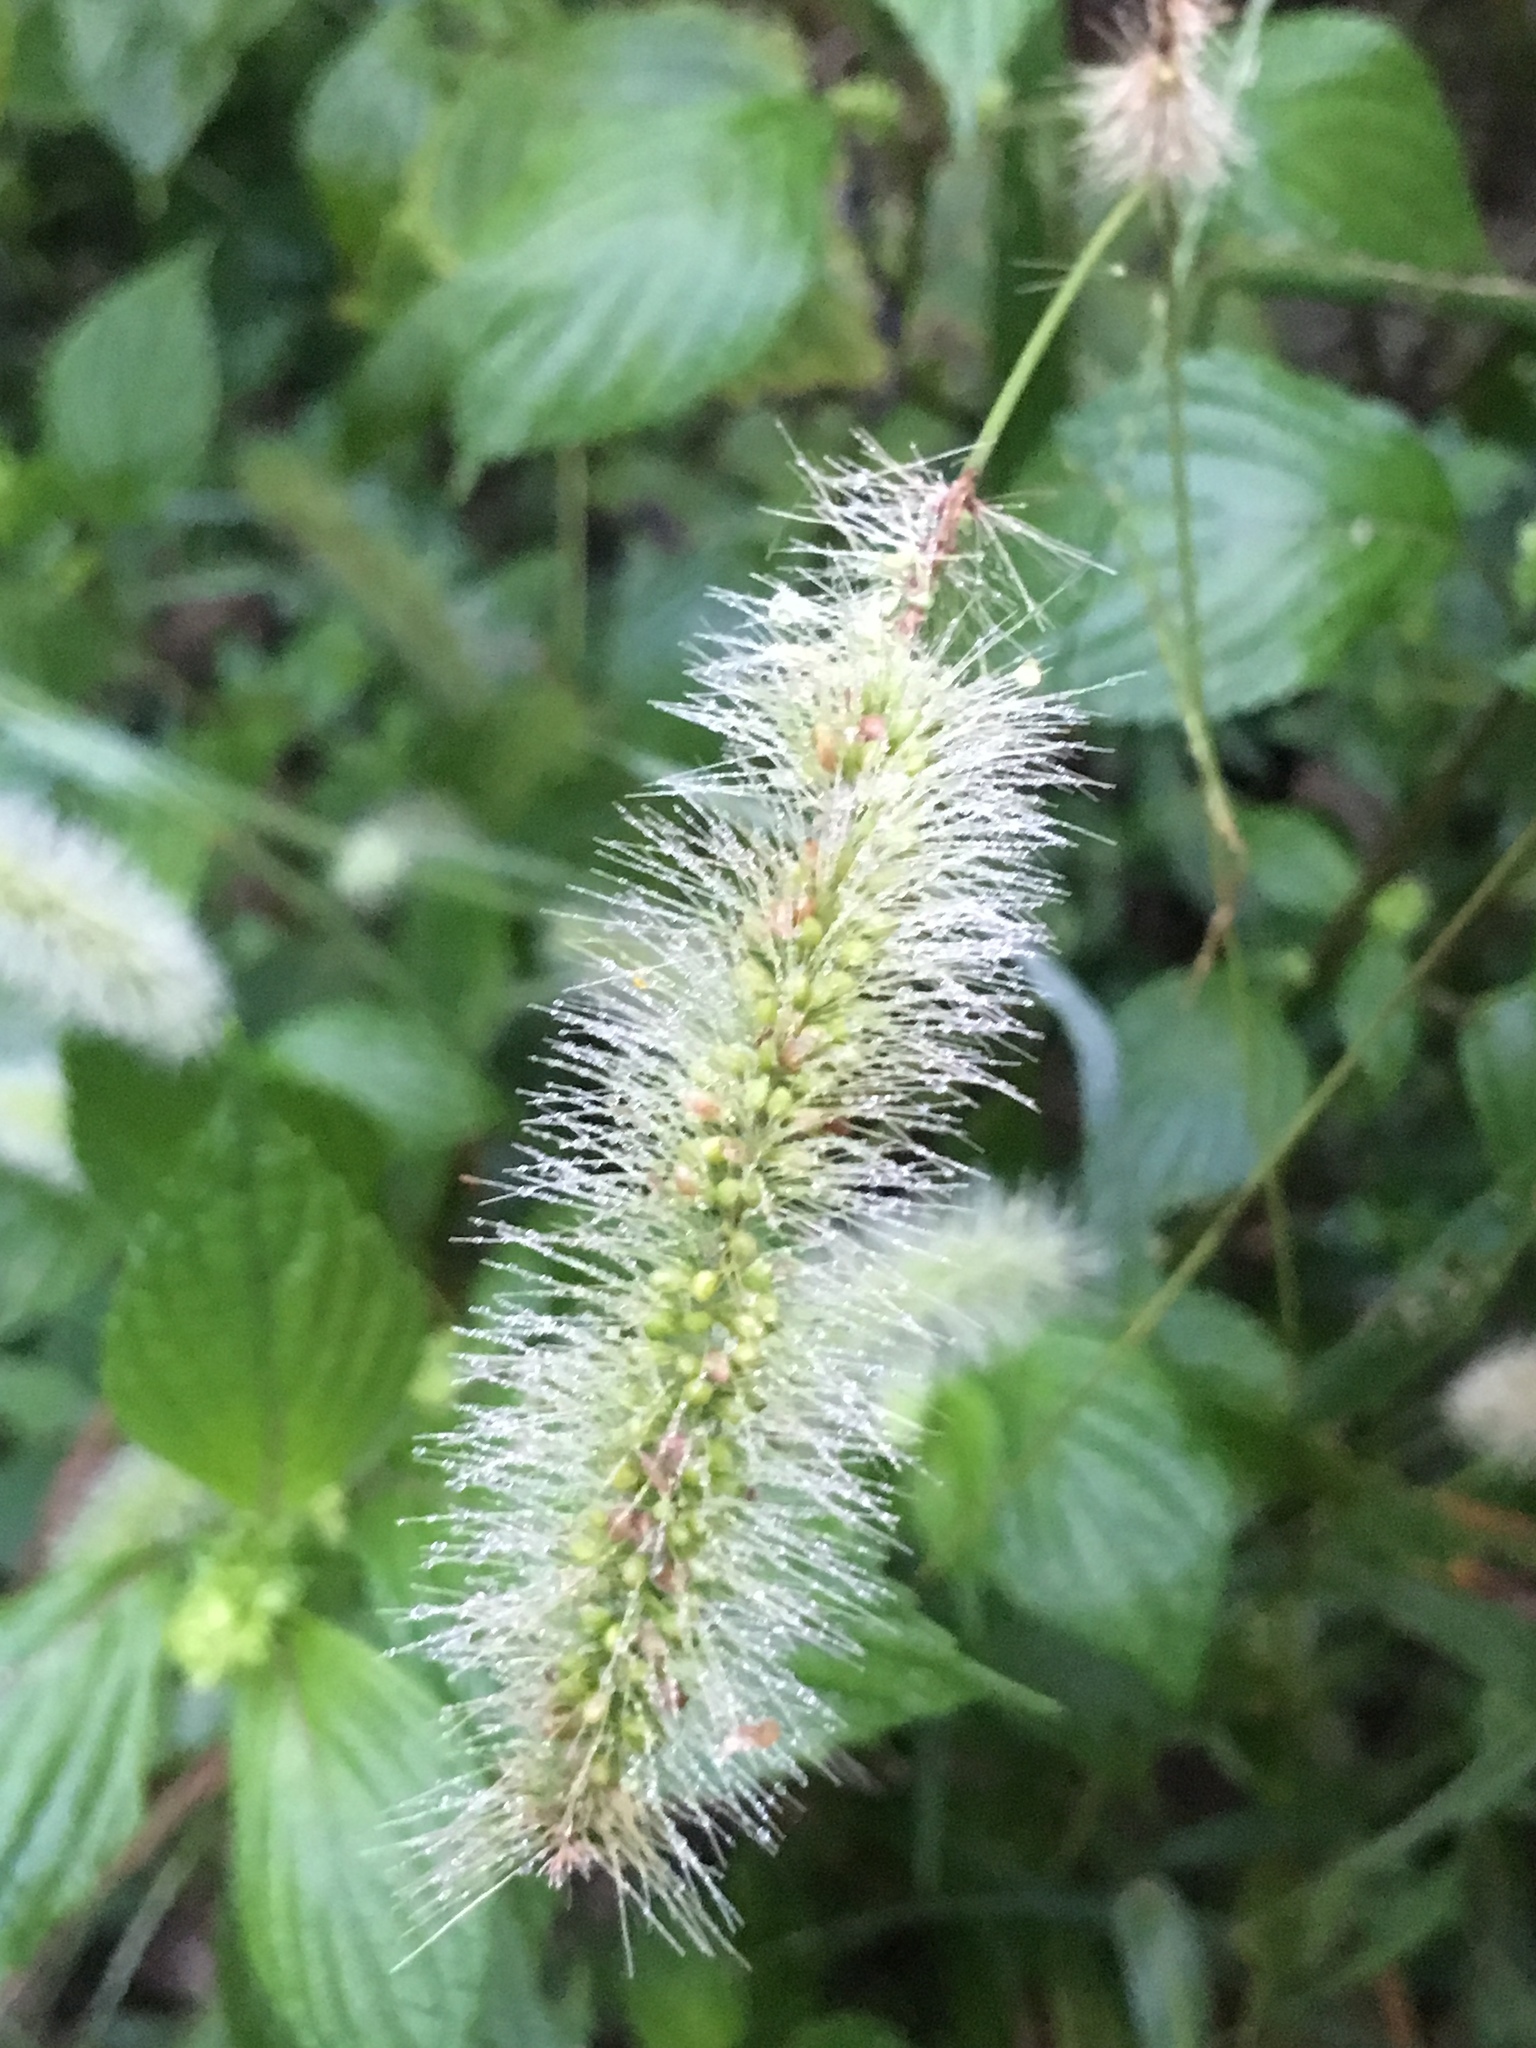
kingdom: Plantae
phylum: Tracheophyta
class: Liliopsida
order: Poales
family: Poaceae
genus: Setaria
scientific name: Setaria viridis
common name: Green bristlegrass
